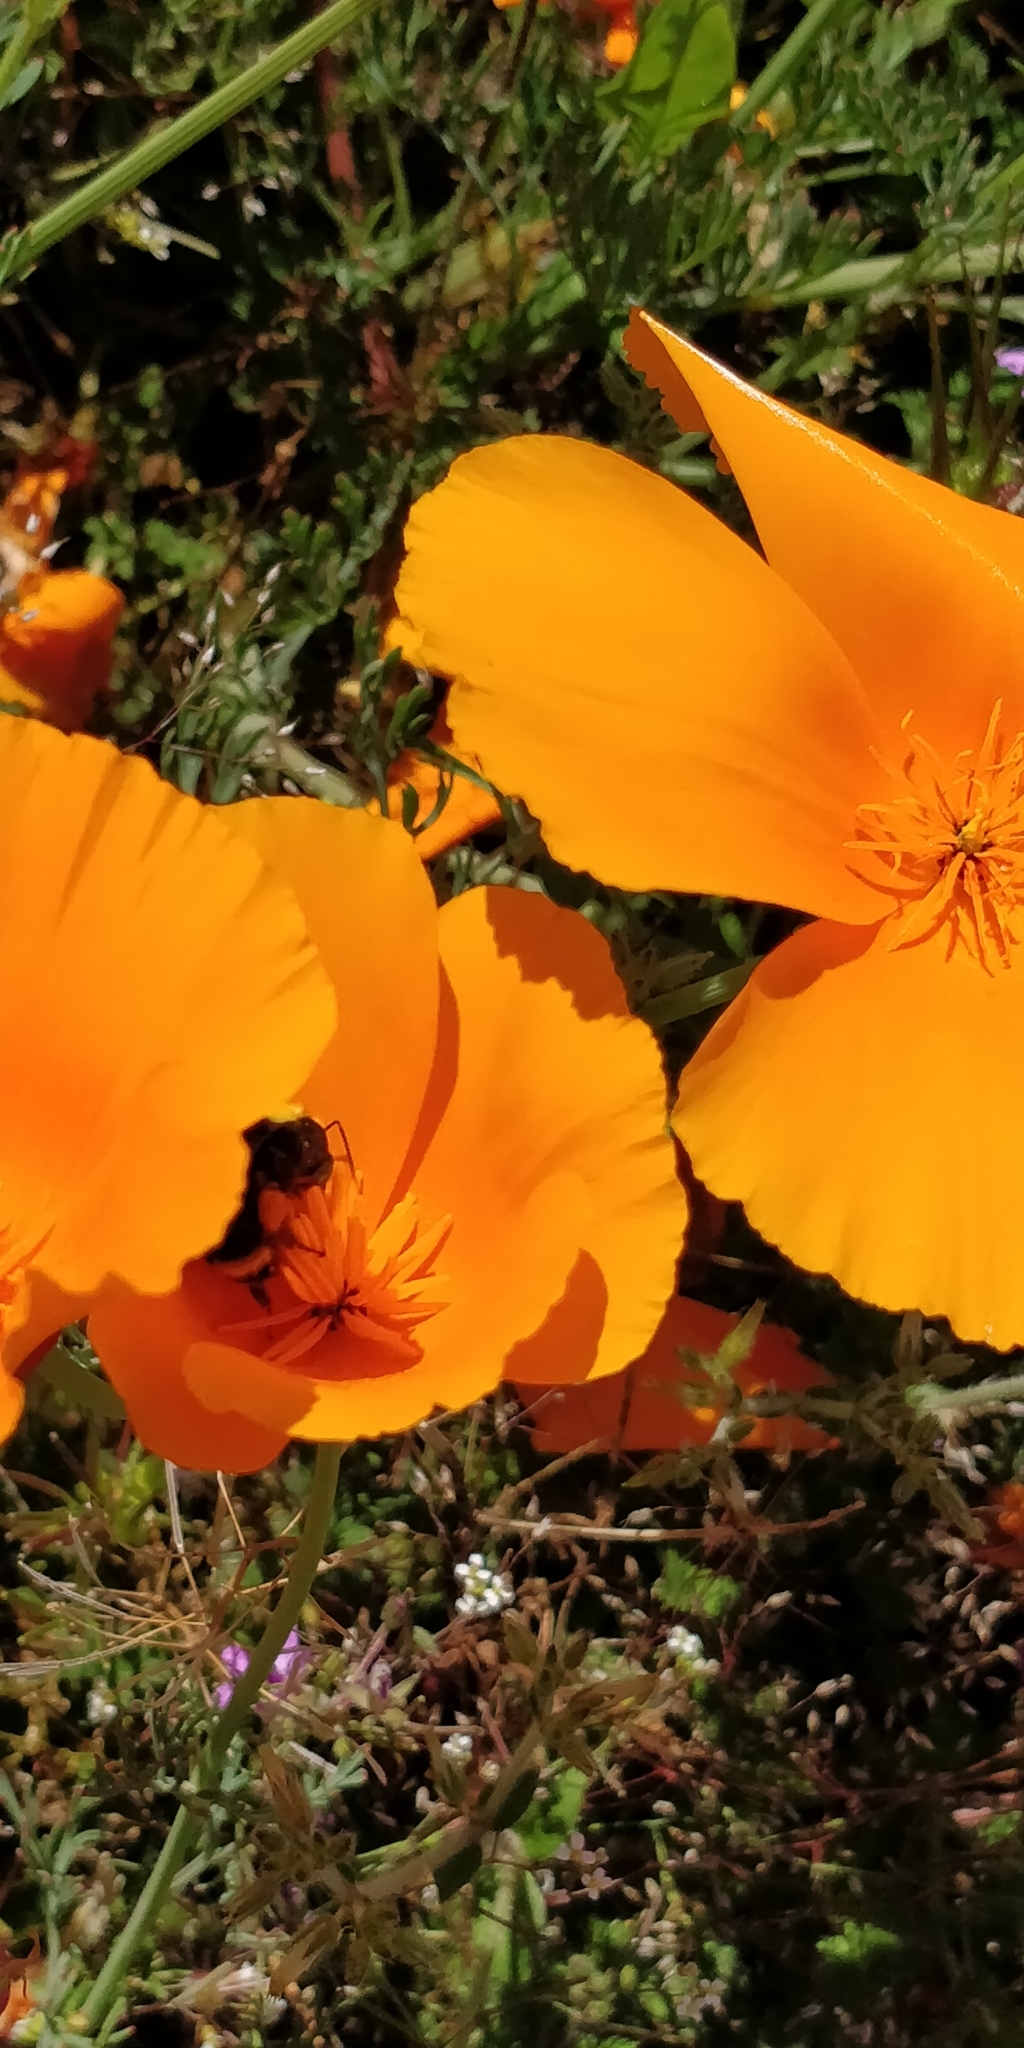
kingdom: Animalia
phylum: Arthropoda
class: Insecta
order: Hymenoptera
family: Apidae
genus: Bombus
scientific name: Bombus vosnesenskii
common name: Vosnesensky bumble bee
